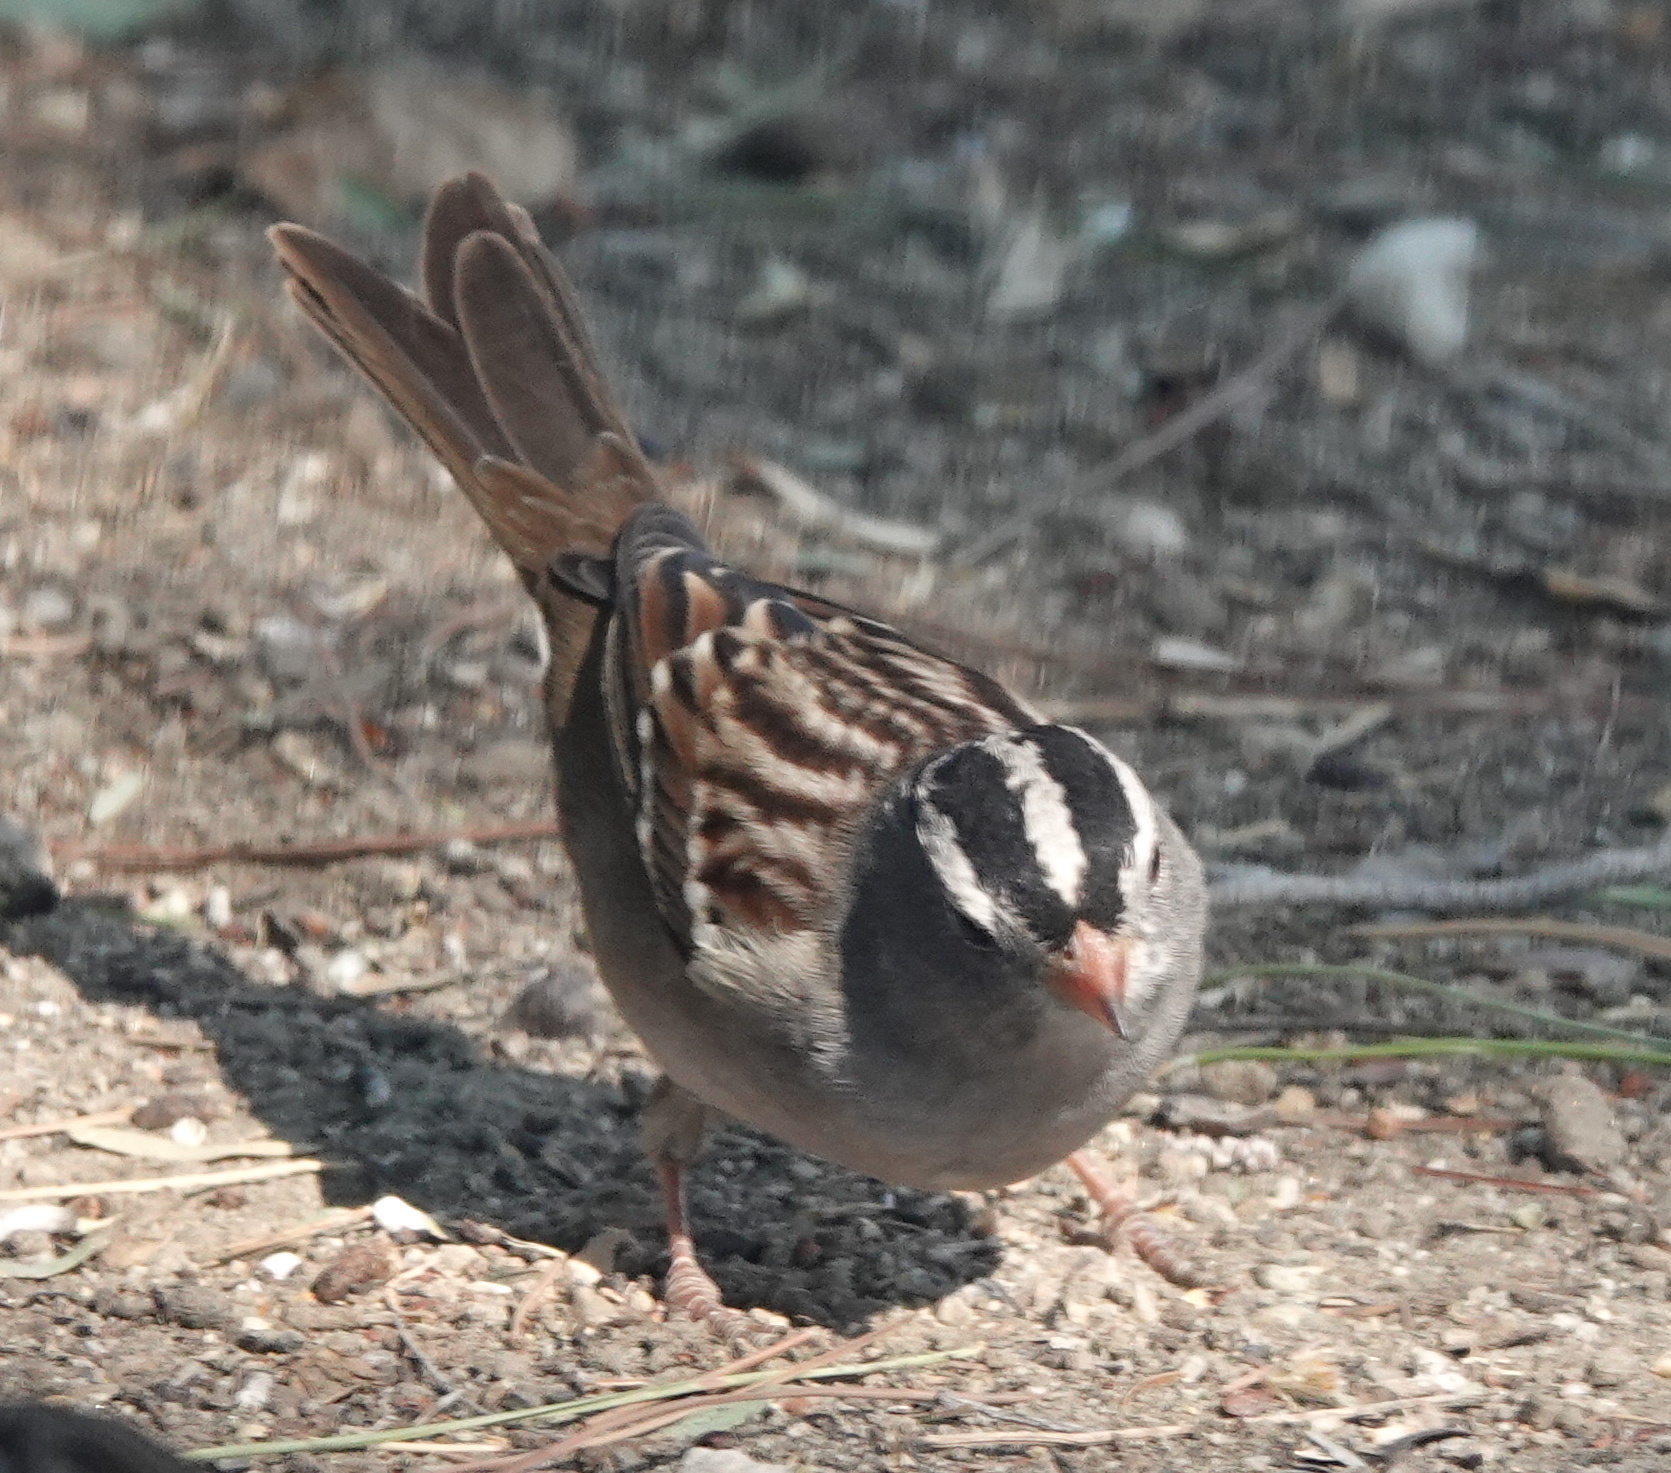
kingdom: Animalia
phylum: Chordata
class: Aves
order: Passeriformes
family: Passerellidae
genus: Zonotrichia
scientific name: Zonotrichia leucophrys
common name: White-crowned sparrow
